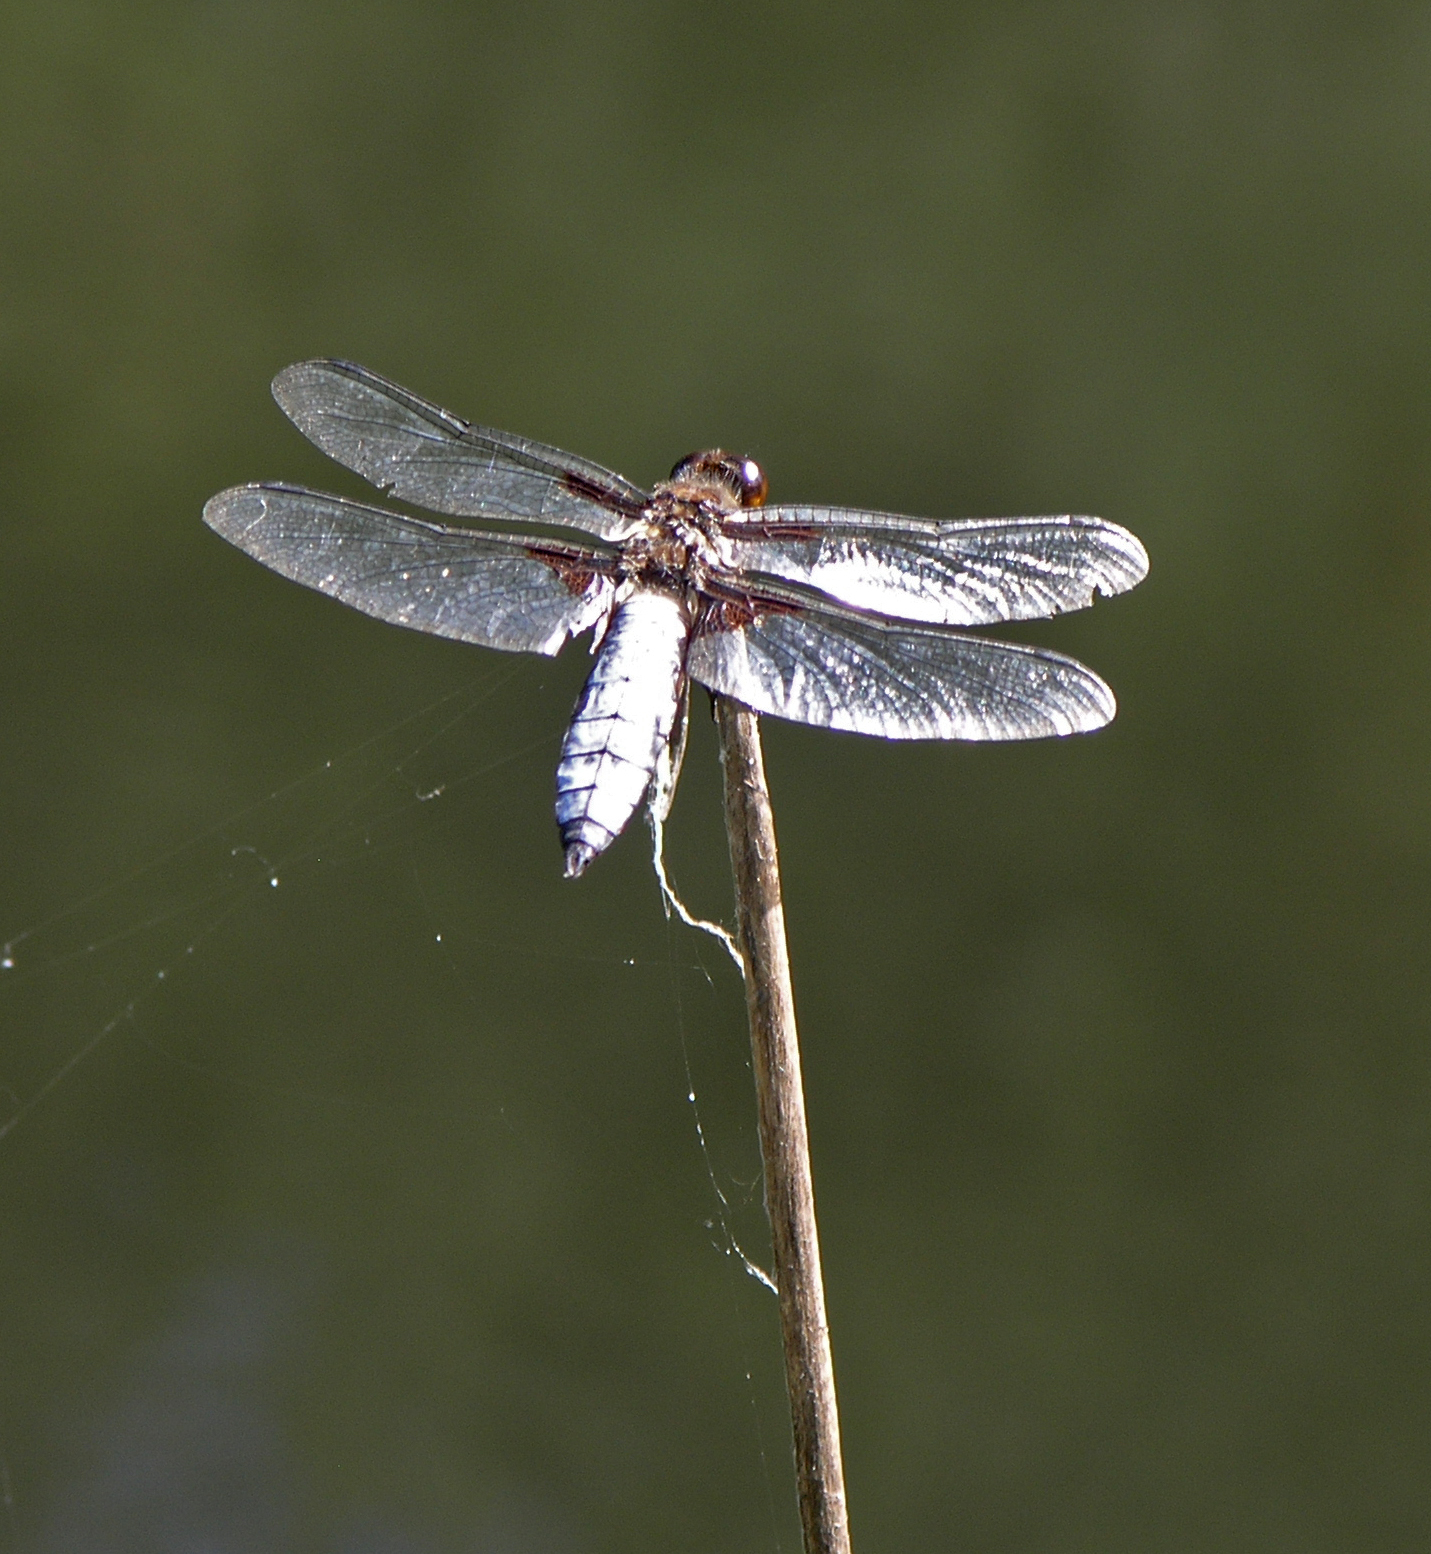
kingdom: Animalia
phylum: Arthropoda
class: Insecta
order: Odonata
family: Libellulidae
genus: Libellula
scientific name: Libellula depressa
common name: Broad-bodied chaser
